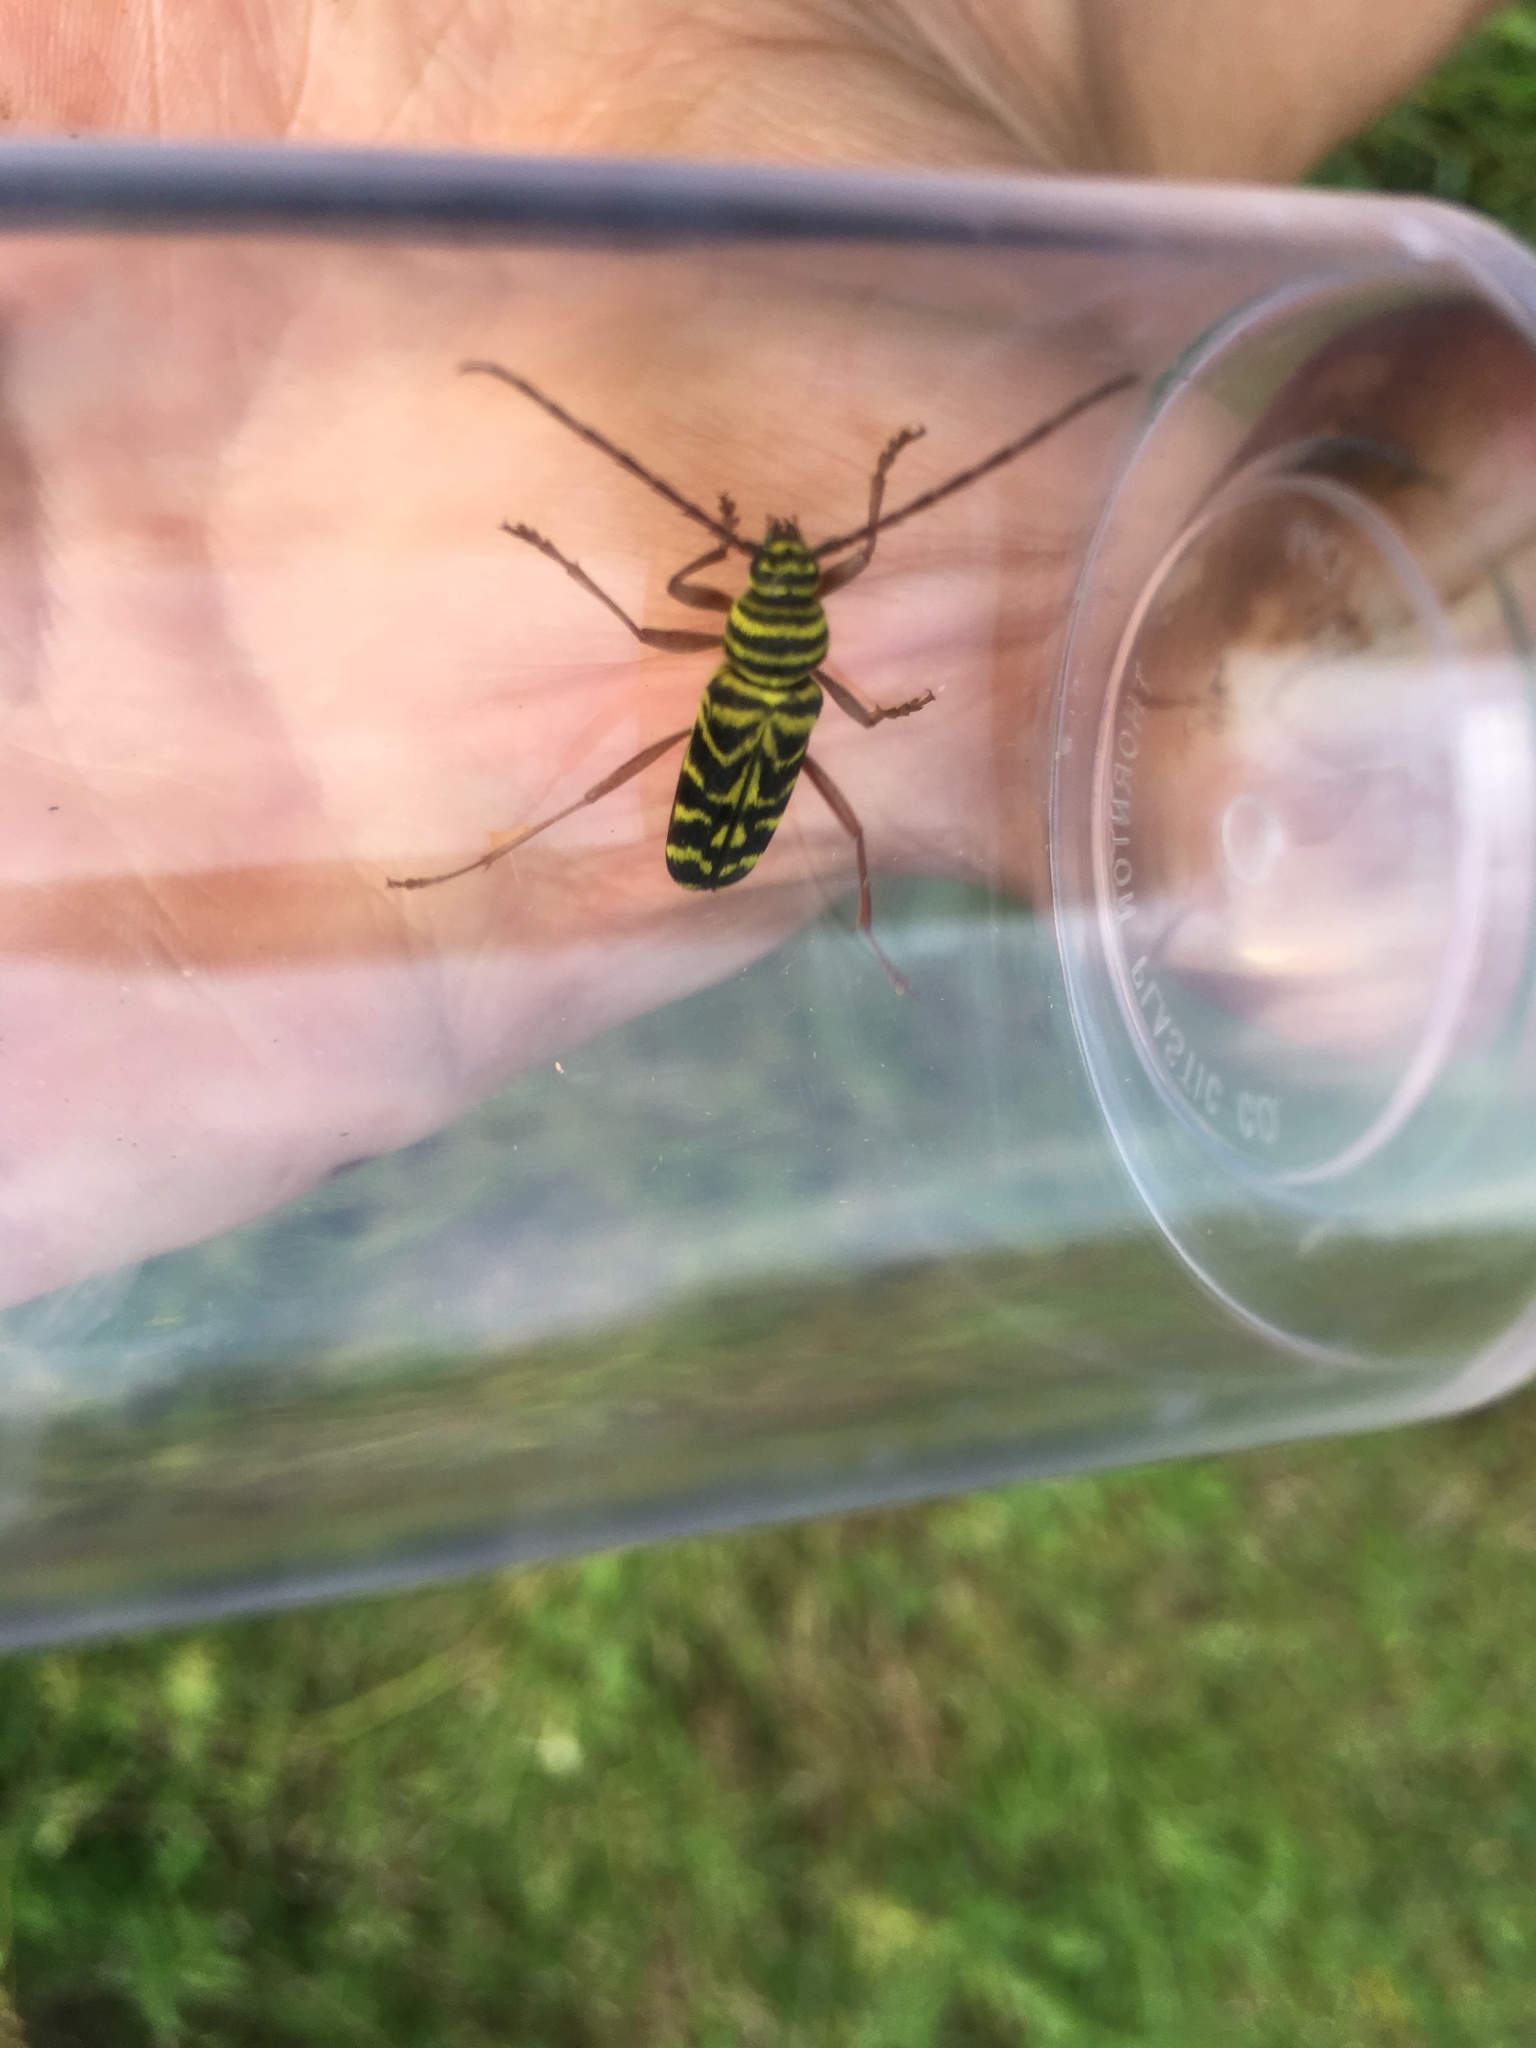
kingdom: Animalia
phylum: Arthropoda
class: Insecta
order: Coleoptera
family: Cerambycidae
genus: Megacyllene
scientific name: Megacyllene robiniae
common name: Locust borer
